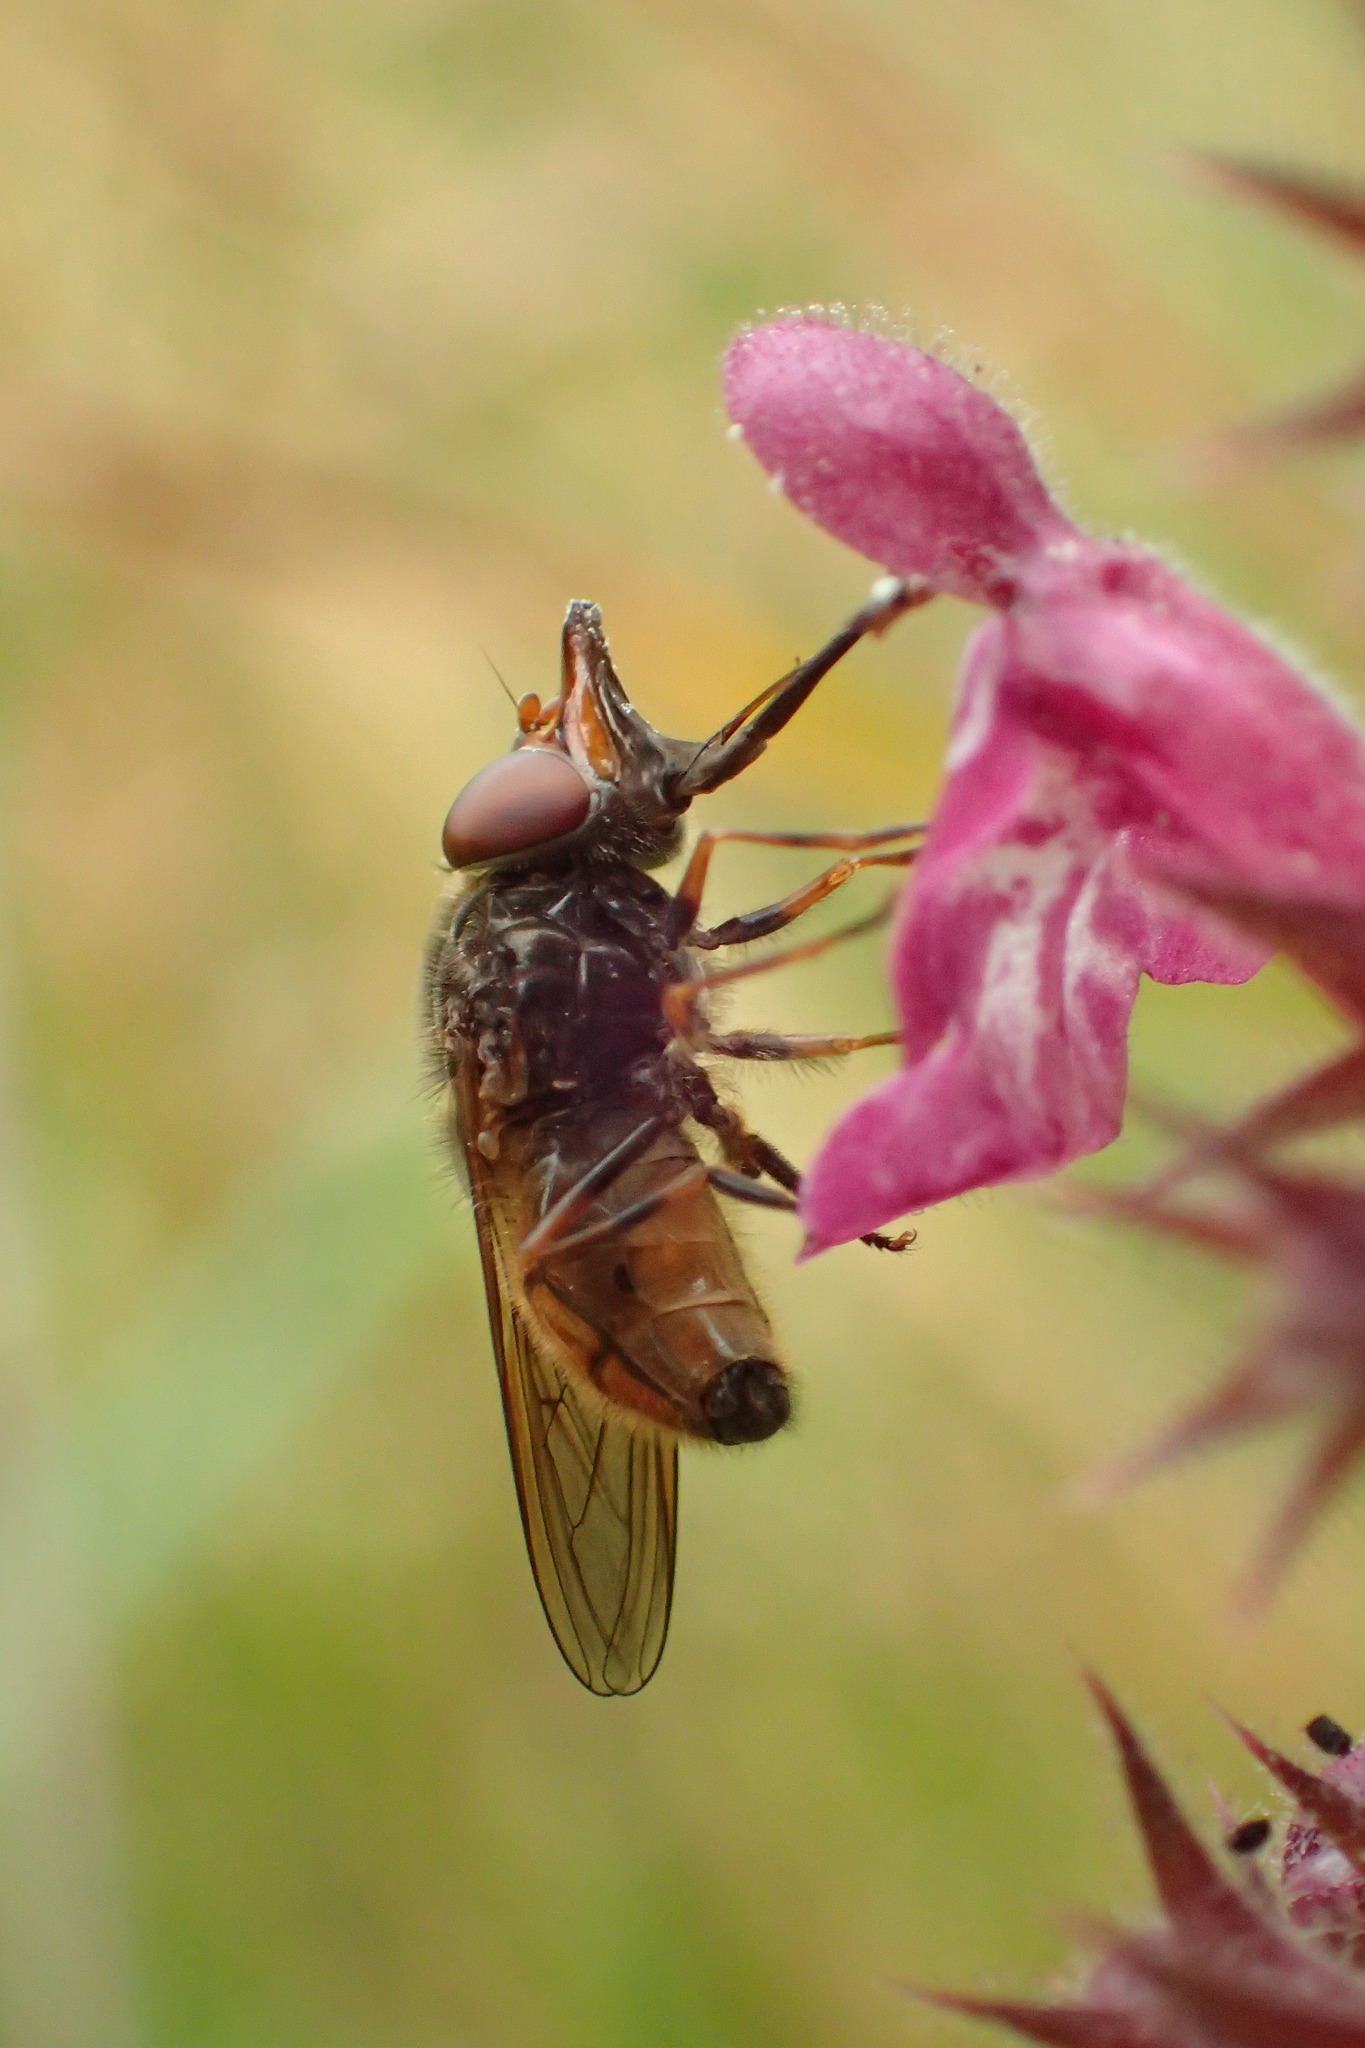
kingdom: Animalia
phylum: Arthropoda
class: Insecta
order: Diptera
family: Syrphidae
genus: Rhingia
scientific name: Rhingia campestris
